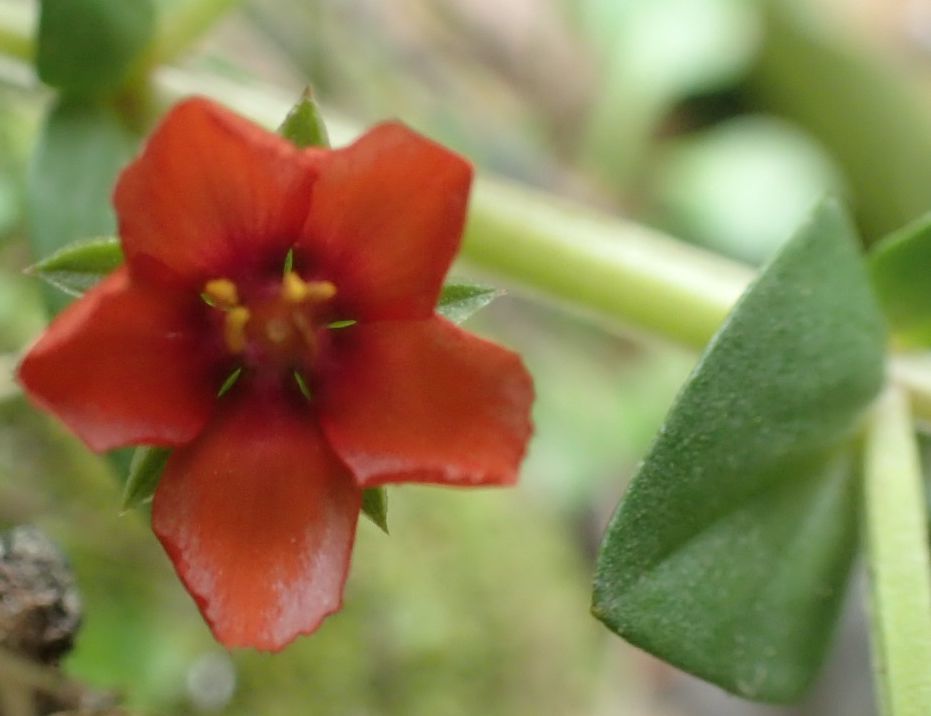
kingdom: Plantae
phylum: Tracheophyta
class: Magnoliopsida
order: Ericales
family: Primulaceae
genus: Lysimachia
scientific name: Lysimachia arvensis
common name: Scarlet pimpernel
